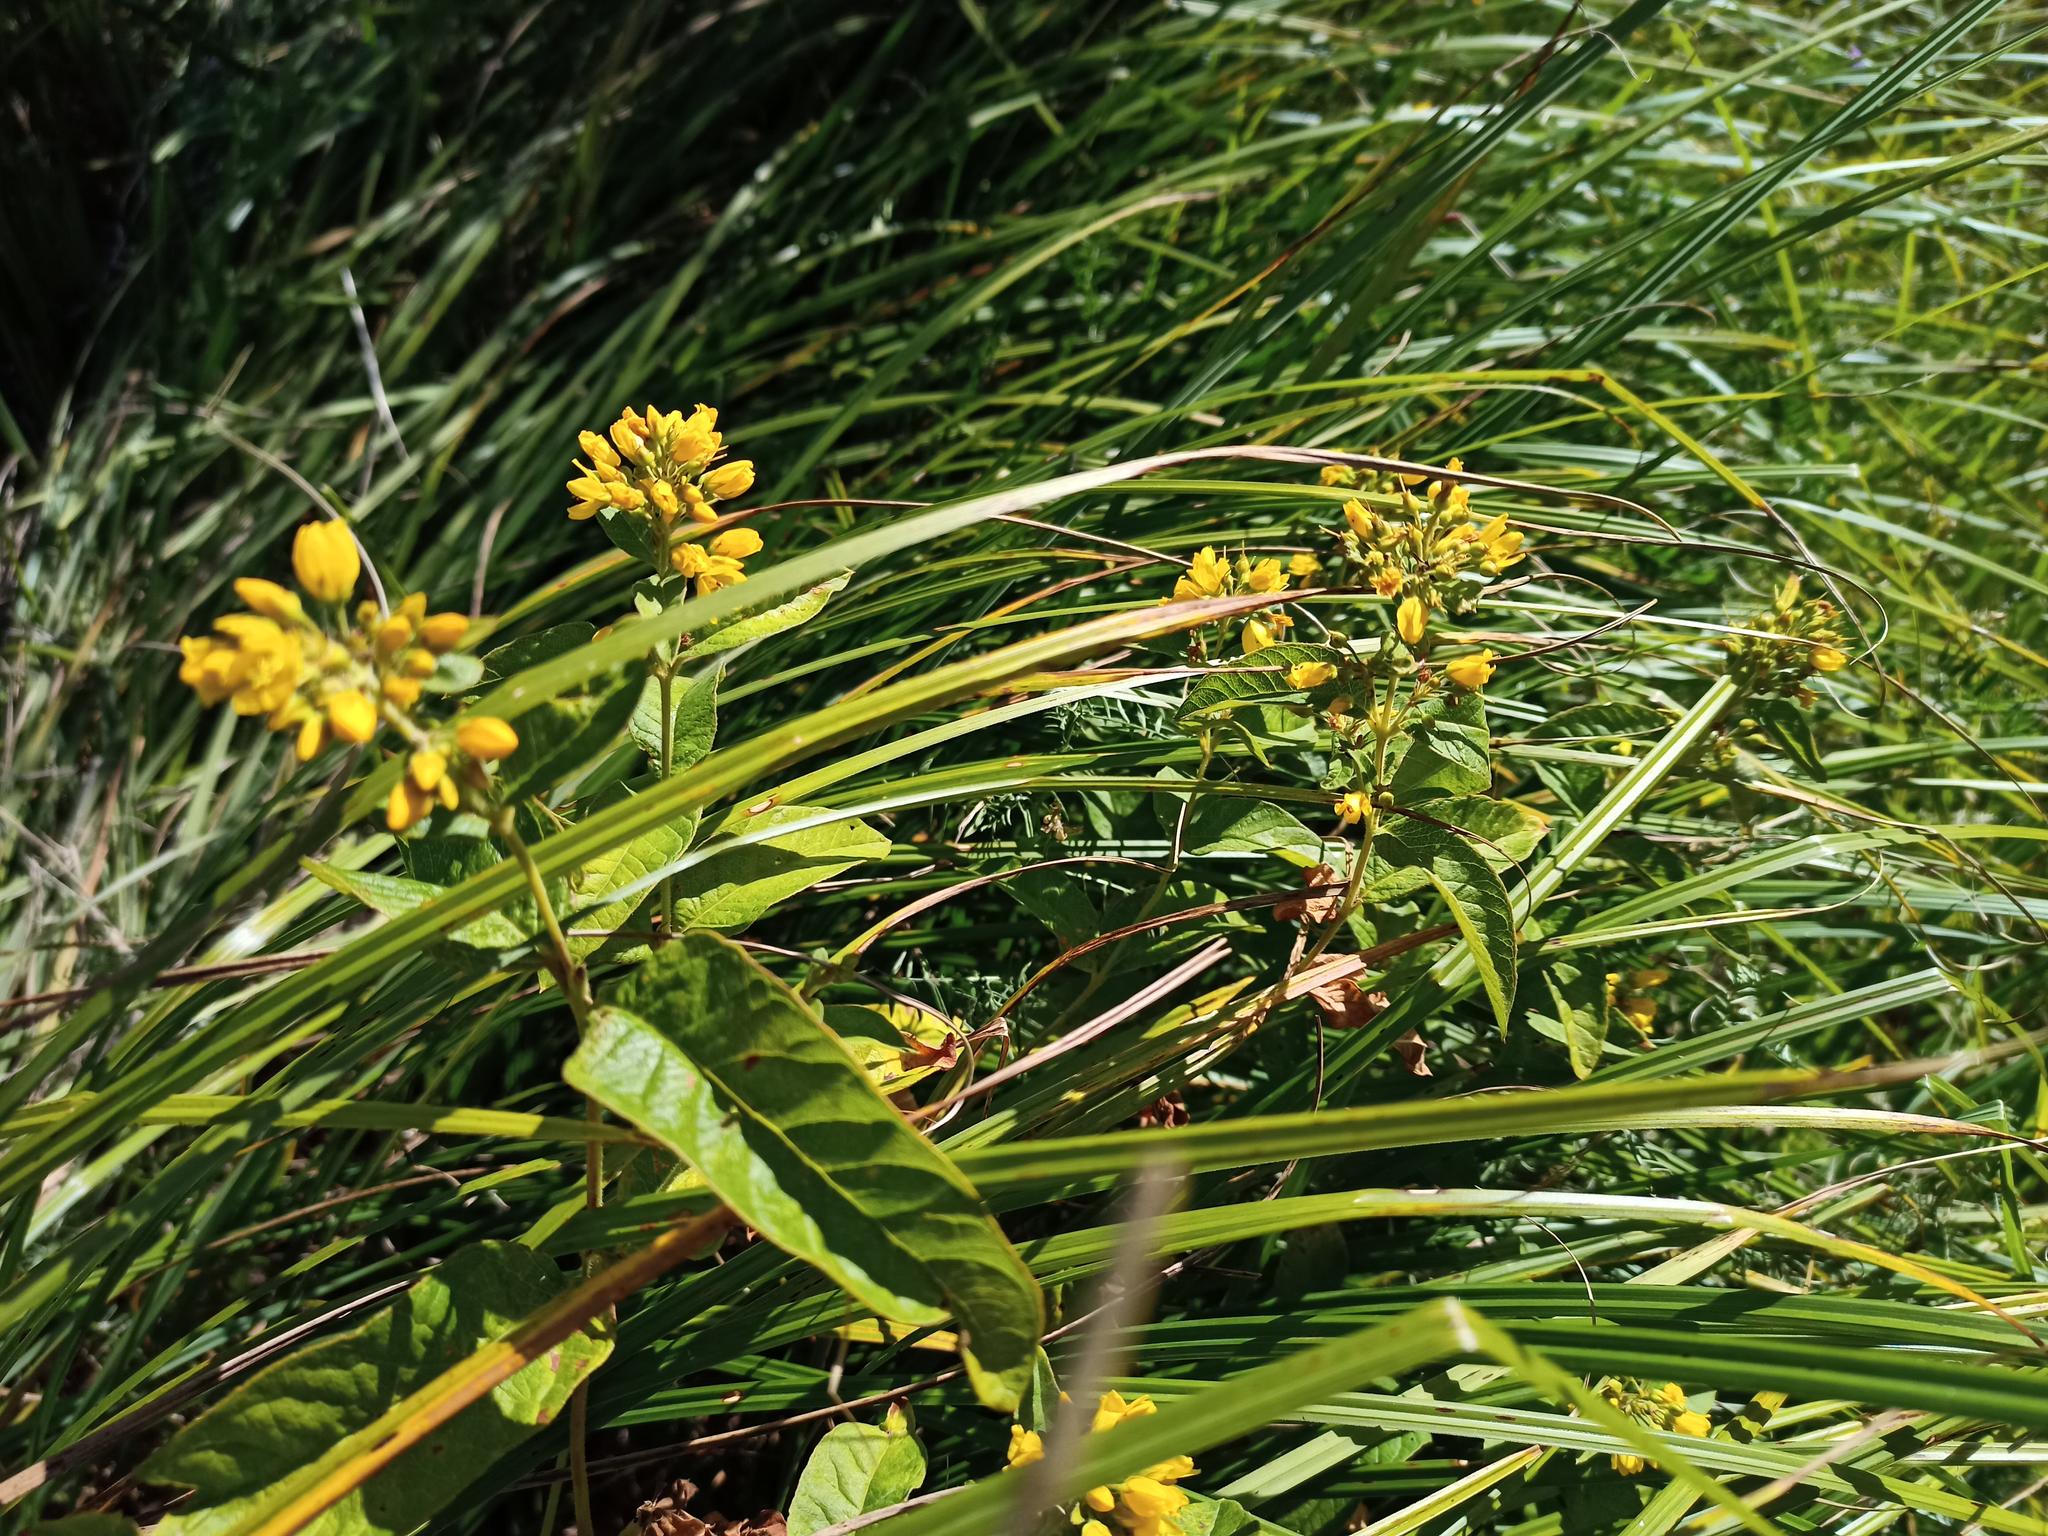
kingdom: Plantae
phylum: Tracheophyta
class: Magnoliopsida
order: Ericales
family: Primulaceae
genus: Lysimachia
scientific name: Lysimachia vulgaris
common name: Yellow loosestrife
